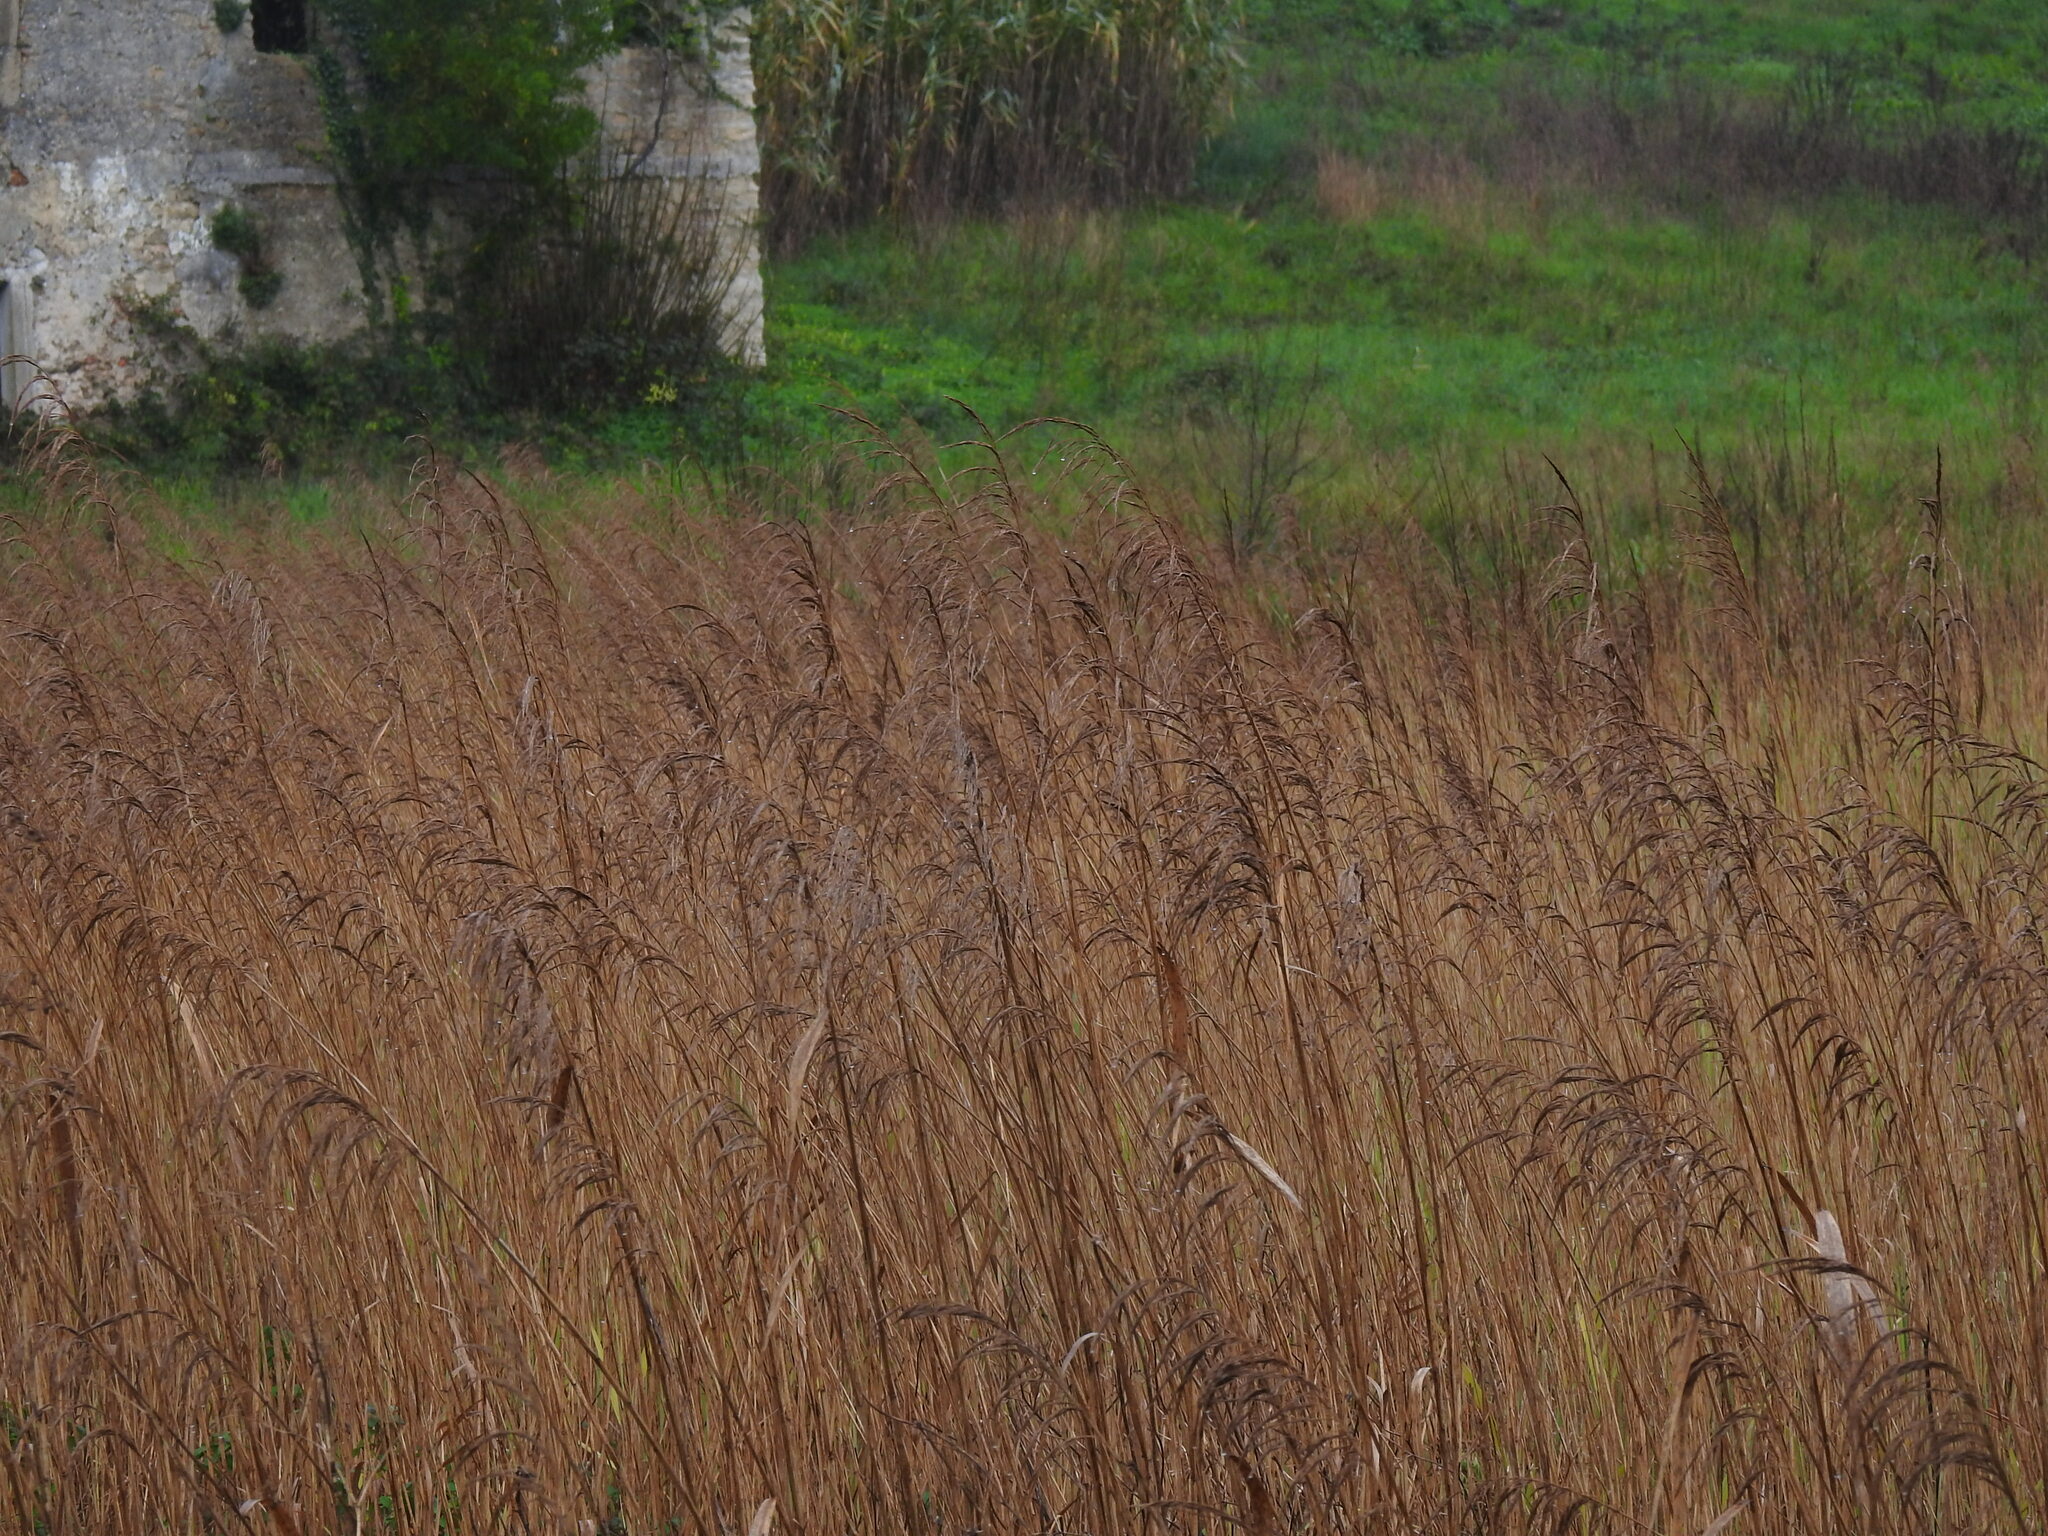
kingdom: Plantae
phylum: Tracheophyta
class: Liliopsida
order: Poales
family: Poaceae
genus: Phragmites
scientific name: Phragmites australis
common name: Common reed
